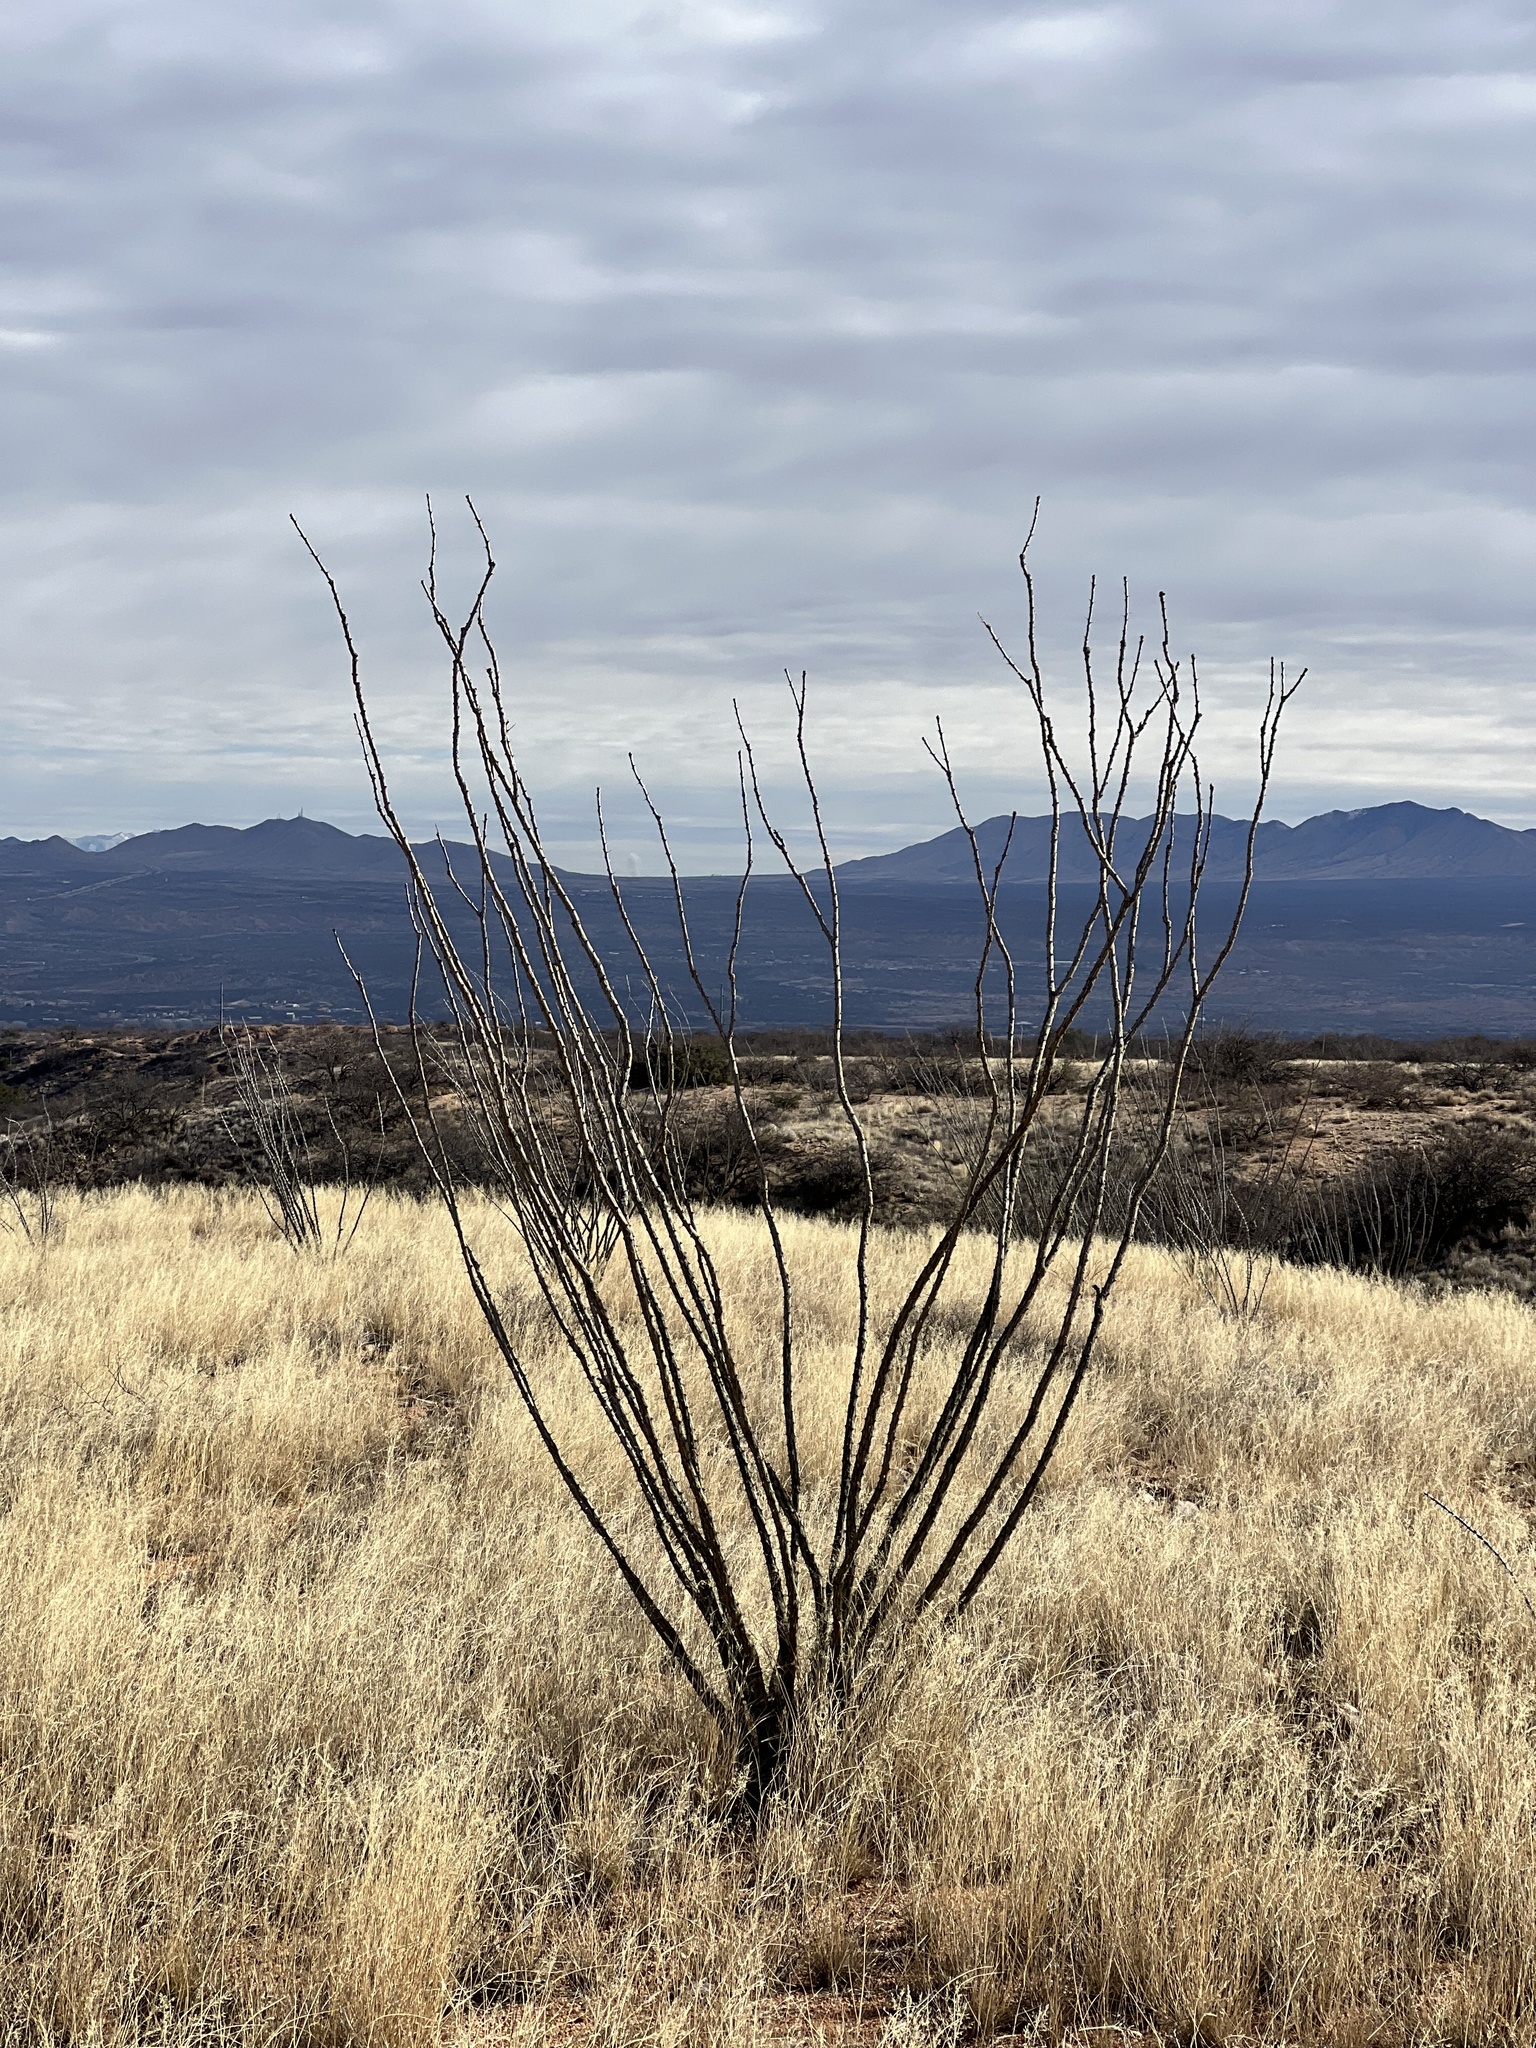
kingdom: Plantae
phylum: Tracheophyta
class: Magnoliopsida
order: Ericales
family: Fouquieriaceae
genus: Fouquieria
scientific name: Fouquieria splendens
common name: Vine-cactus
